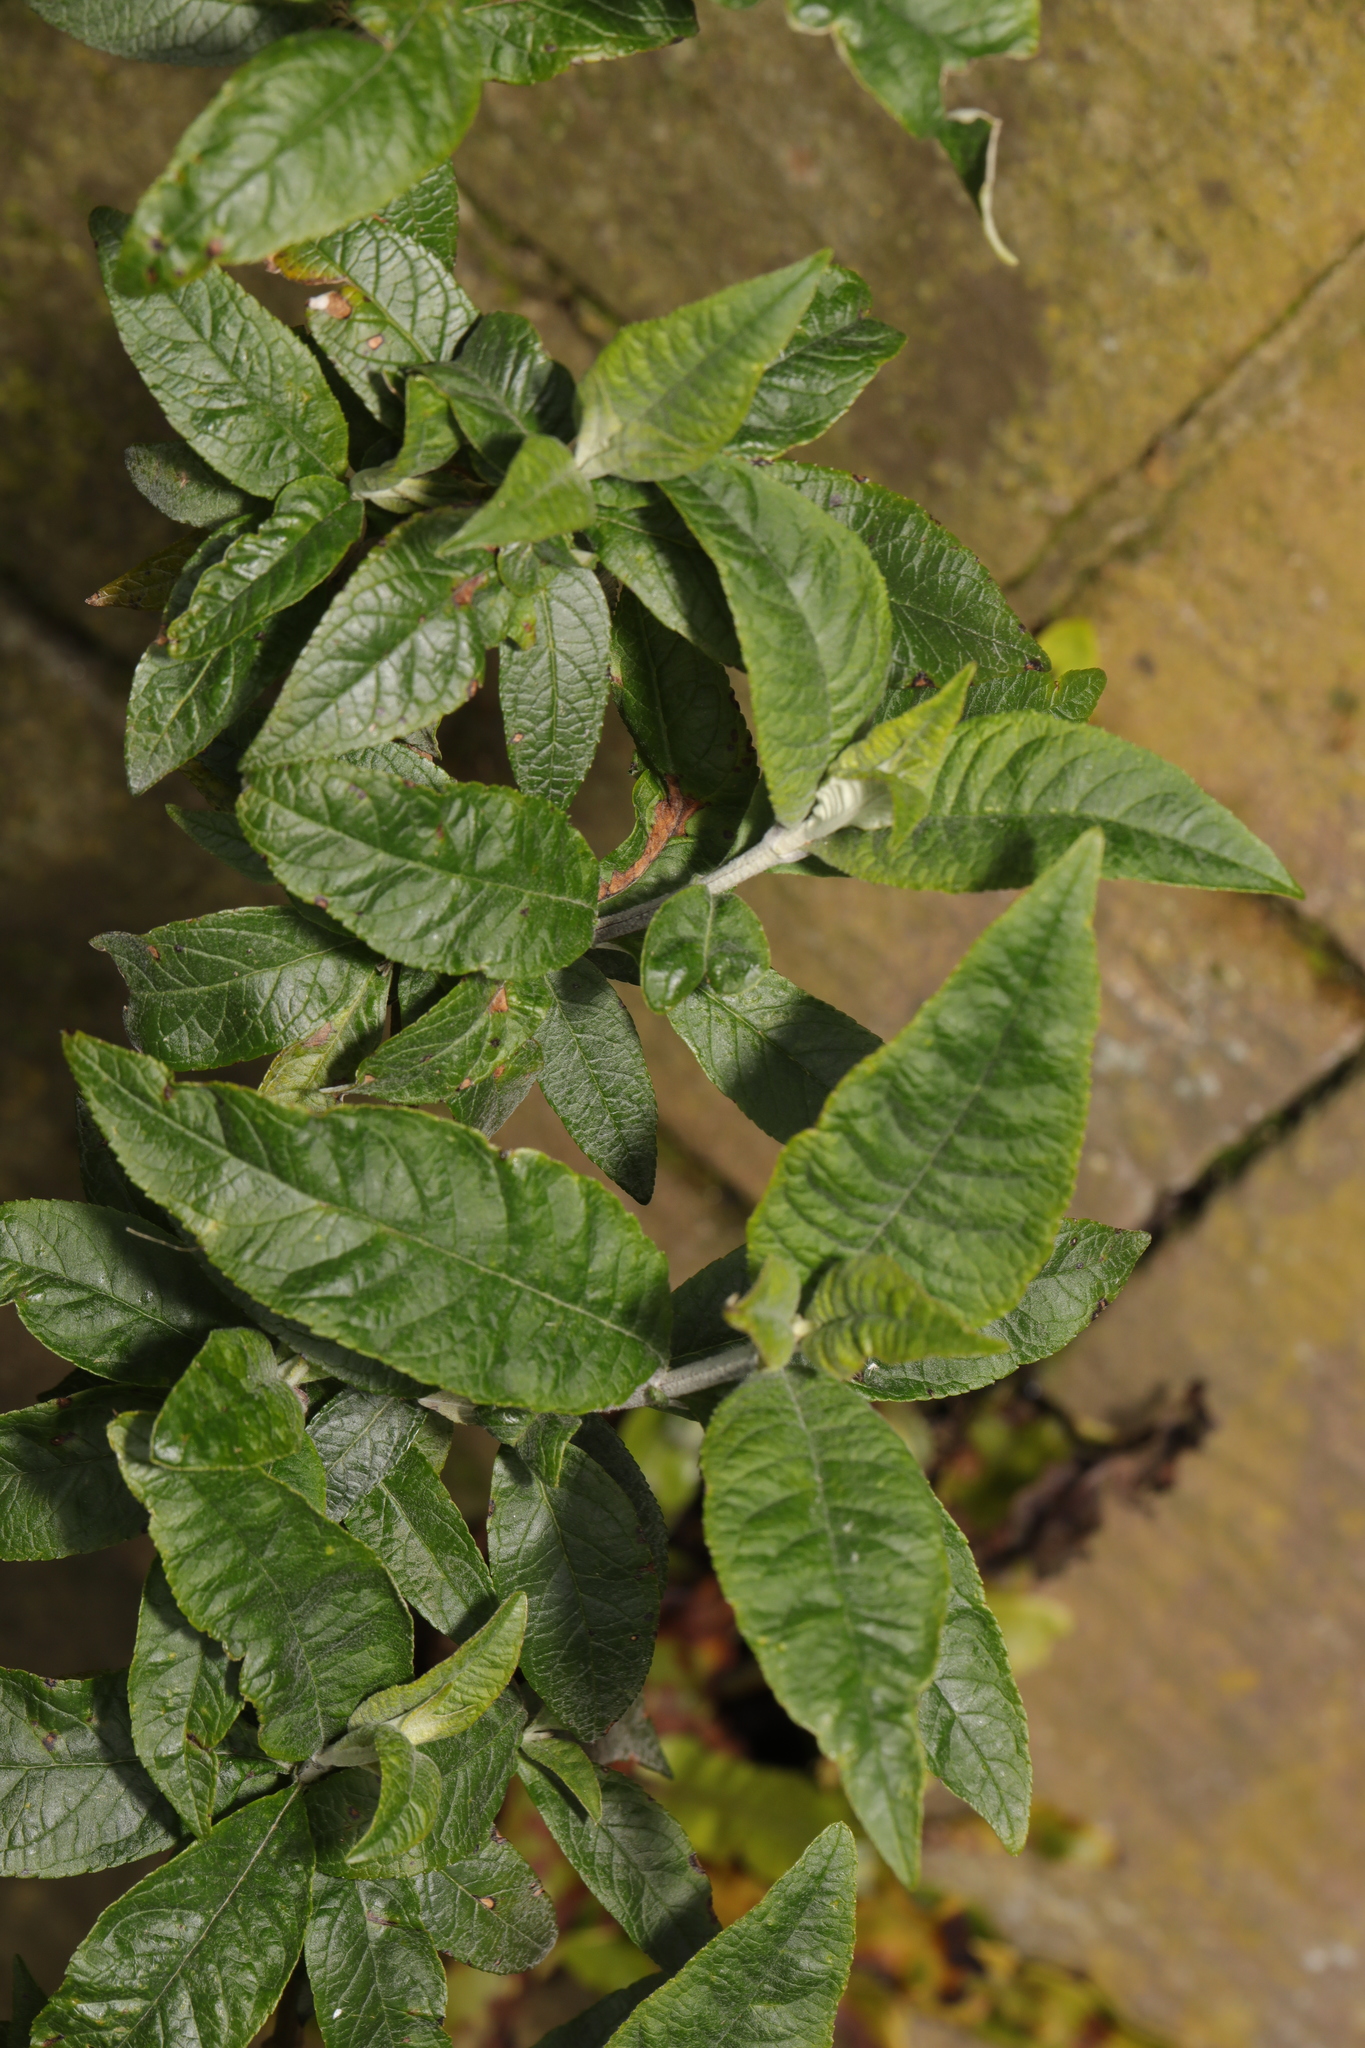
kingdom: Plantae
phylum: Tracheophyta
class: Magnoliopsida
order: Lamiales
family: Scrophulariaceae
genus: Buddleja
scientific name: Buddleja davidii
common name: Butterfly-bush
